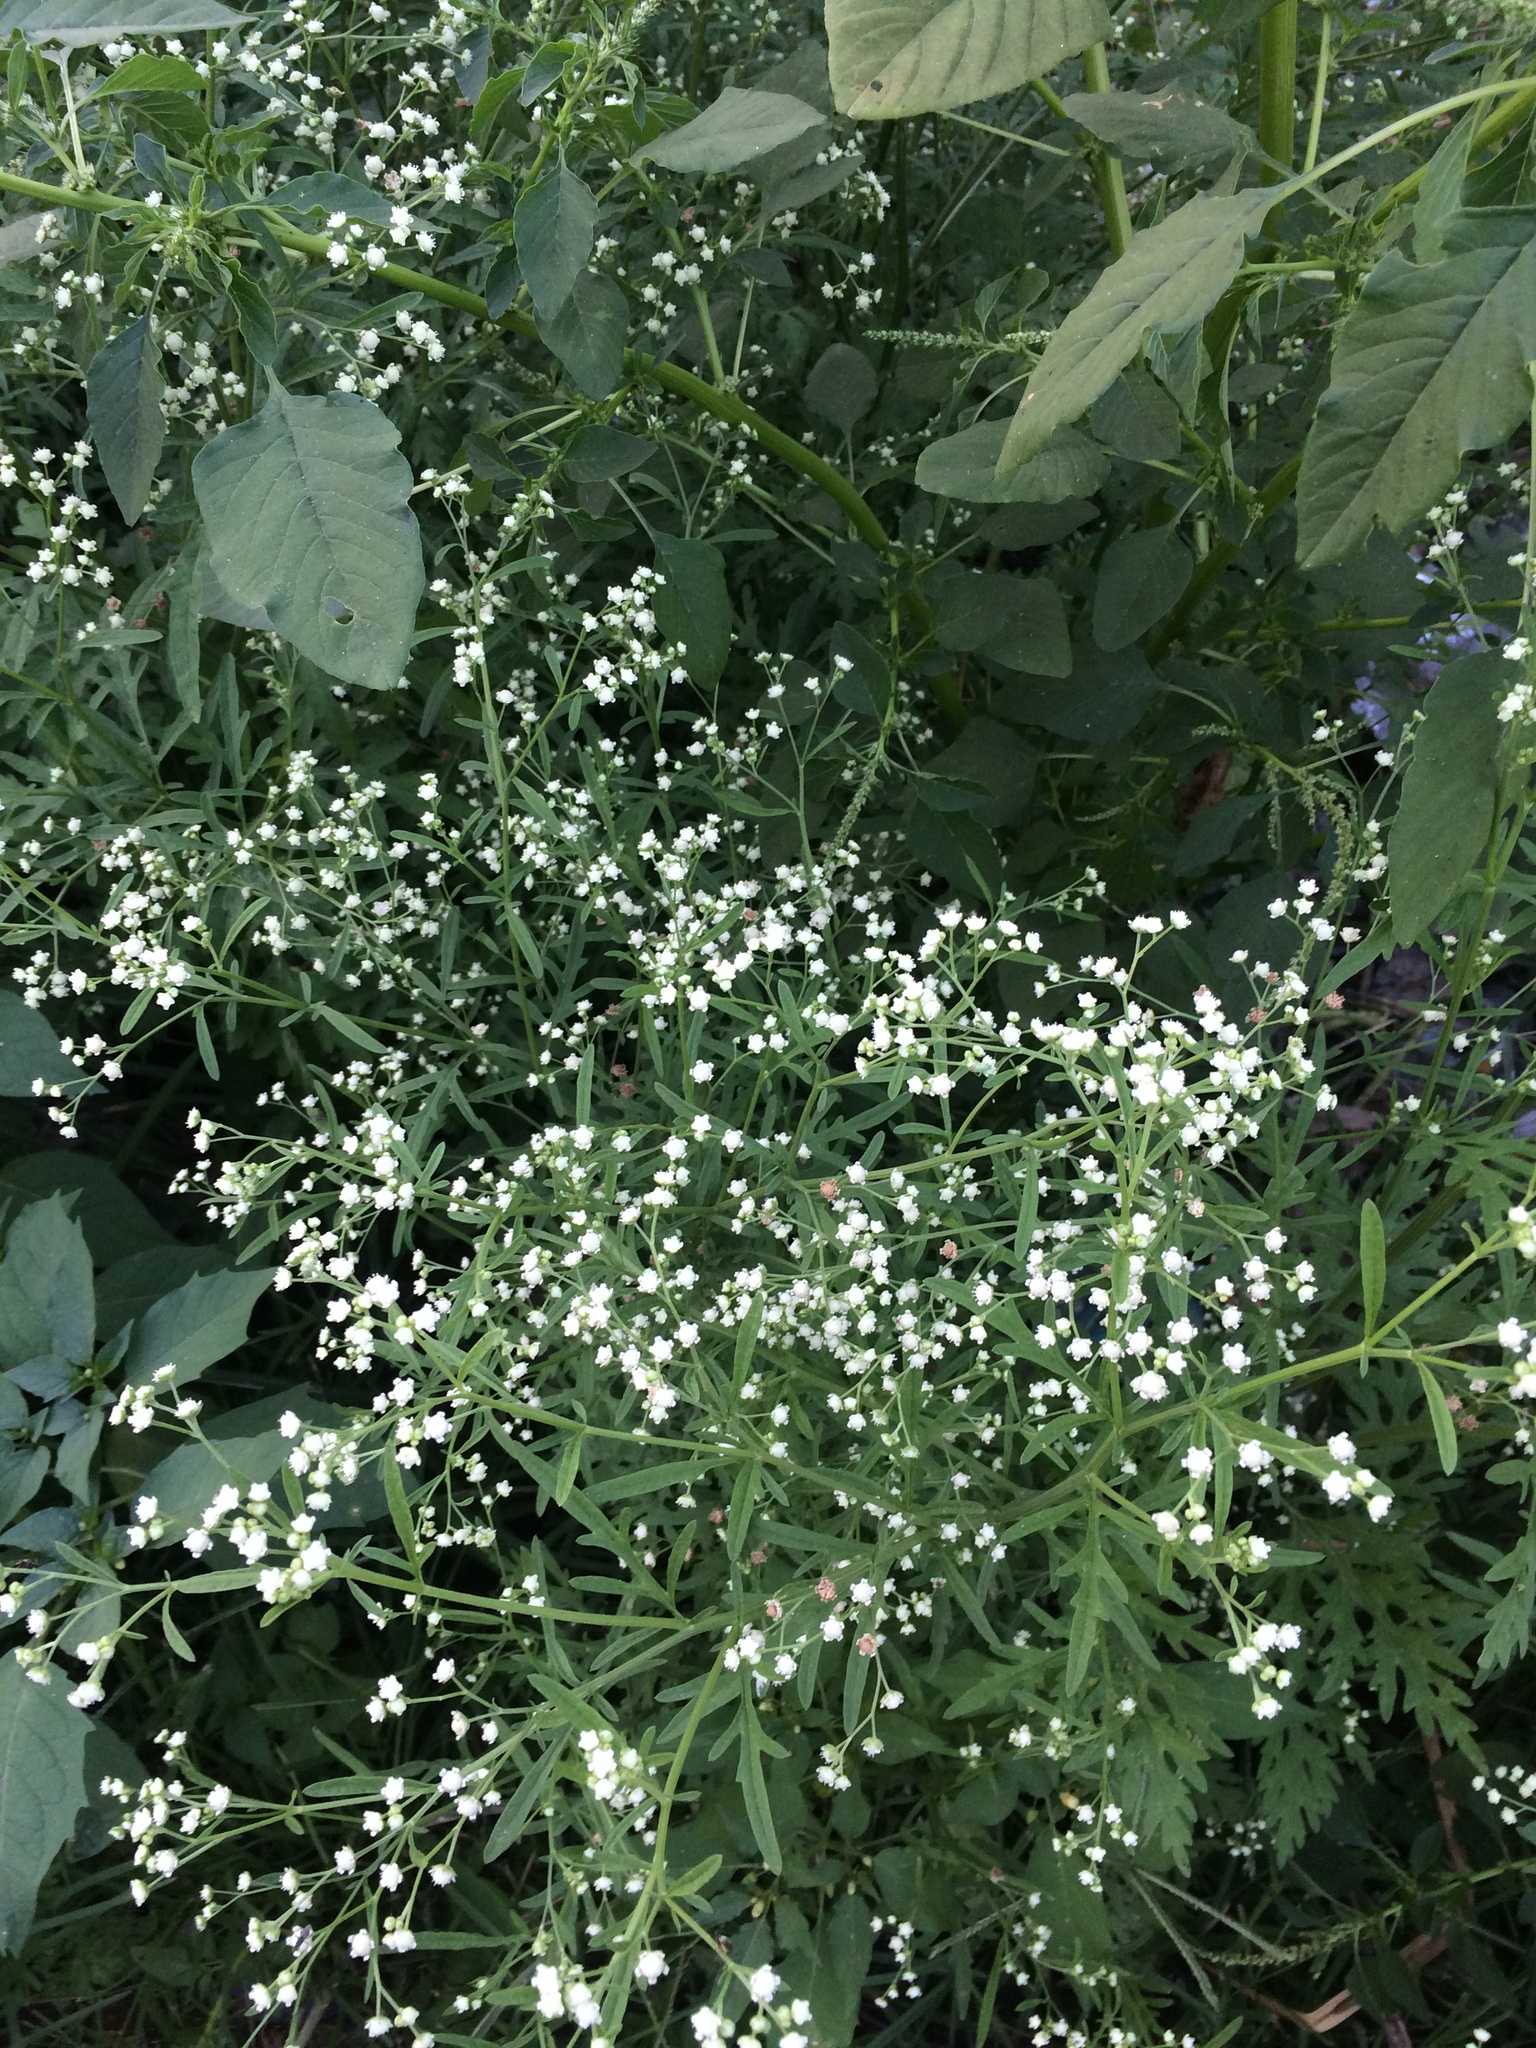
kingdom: Plantae
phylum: Tracheophyta
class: Magnoliopsida
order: Asterales
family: Asteraceae
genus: Parthenium
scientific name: Parthenium hysterophorus
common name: Santa maria feverfew
